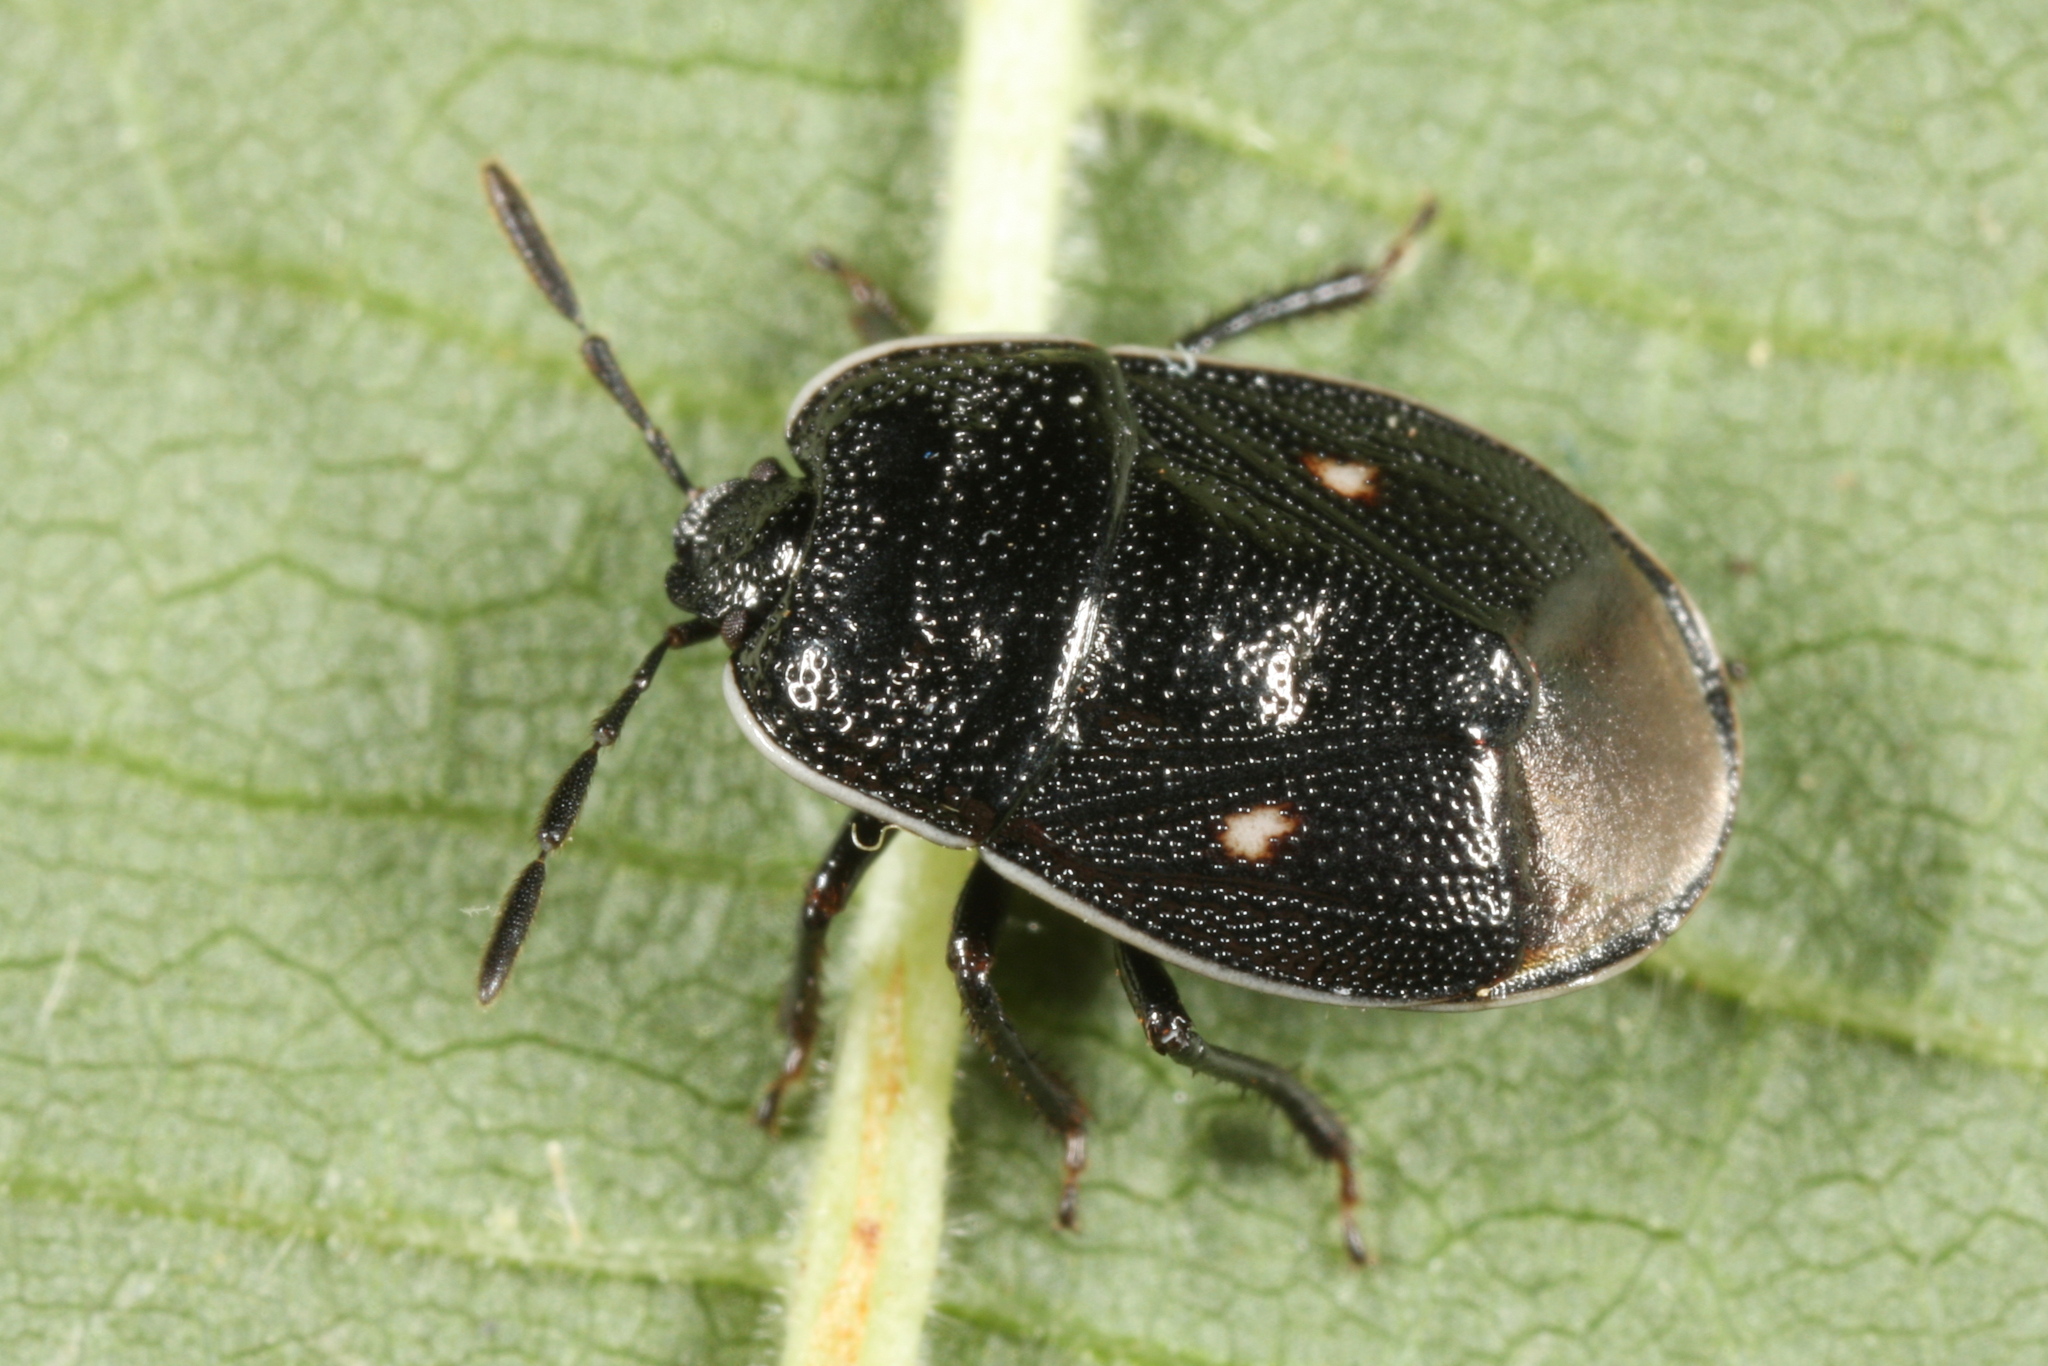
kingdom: Animalia
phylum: Arthropoda
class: Insecta
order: Hemiptera
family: Cydnidae
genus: Adomerus
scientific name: Adomerus biguttatus
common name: Cow wheat shieldbug
